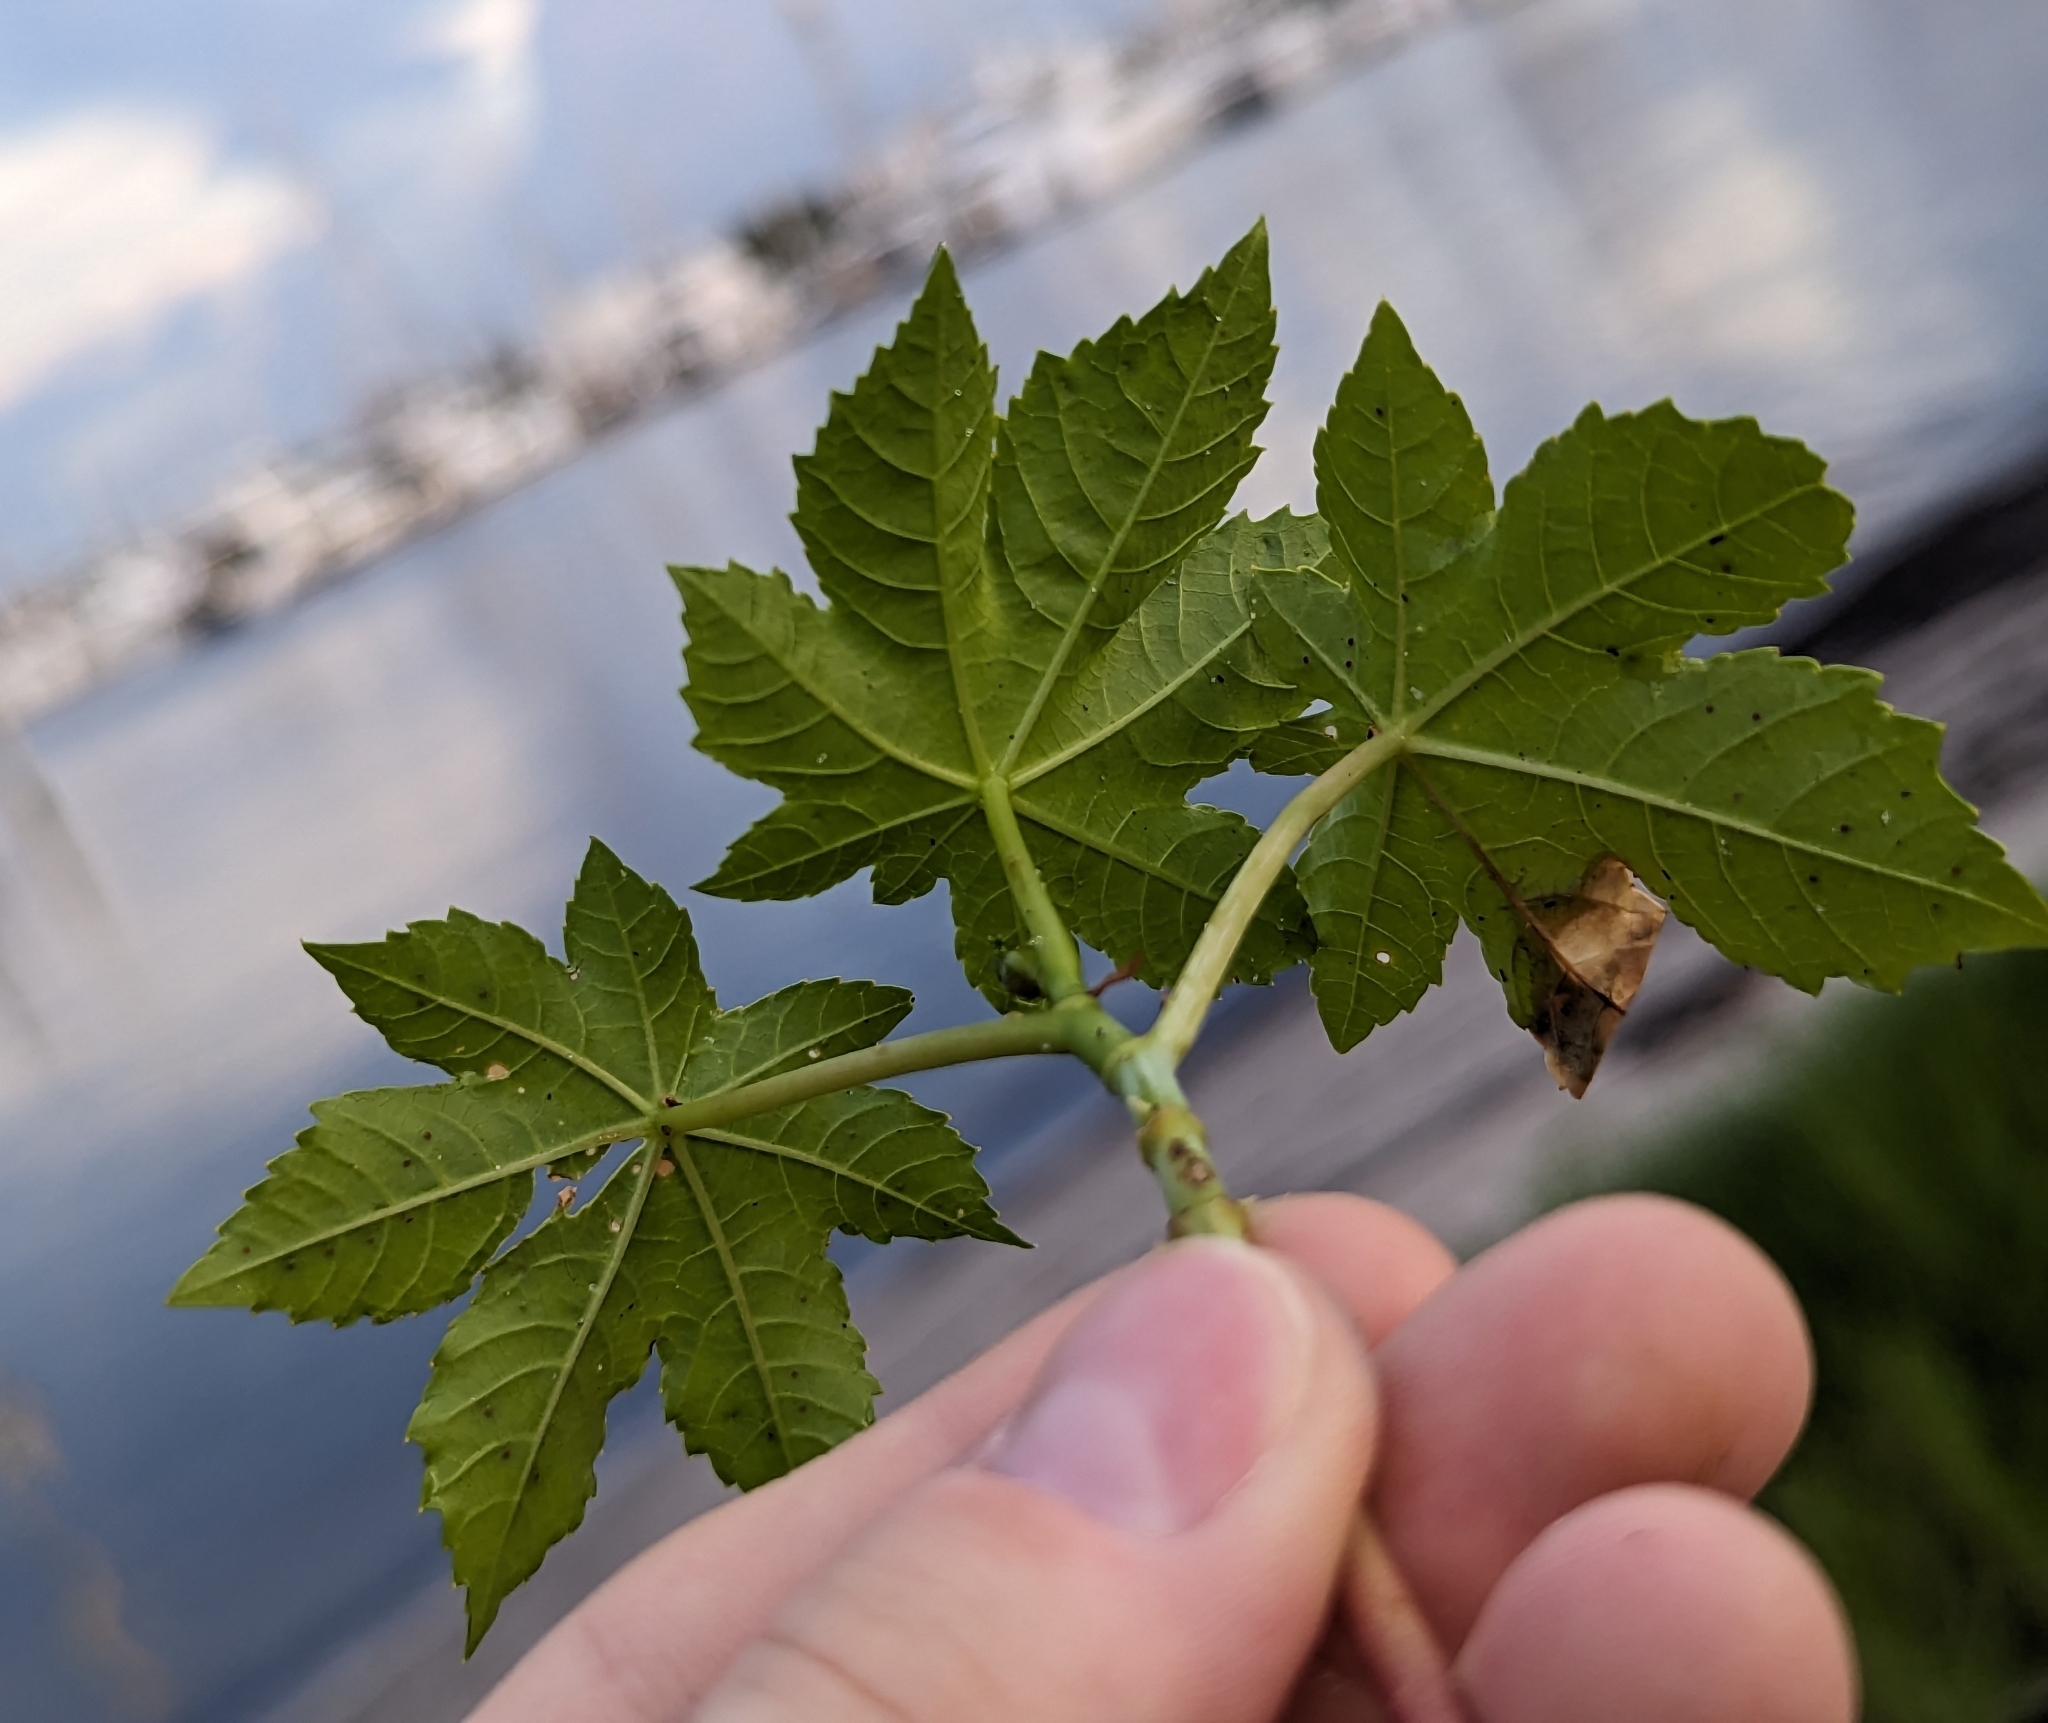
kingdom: Plantae
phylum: Tracheophyta
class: Magnoliopsida
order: Malpighiales
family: Euphorbiaceae
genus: Ricinus
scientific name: Ricinus communis
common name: Castor-oil-plant
